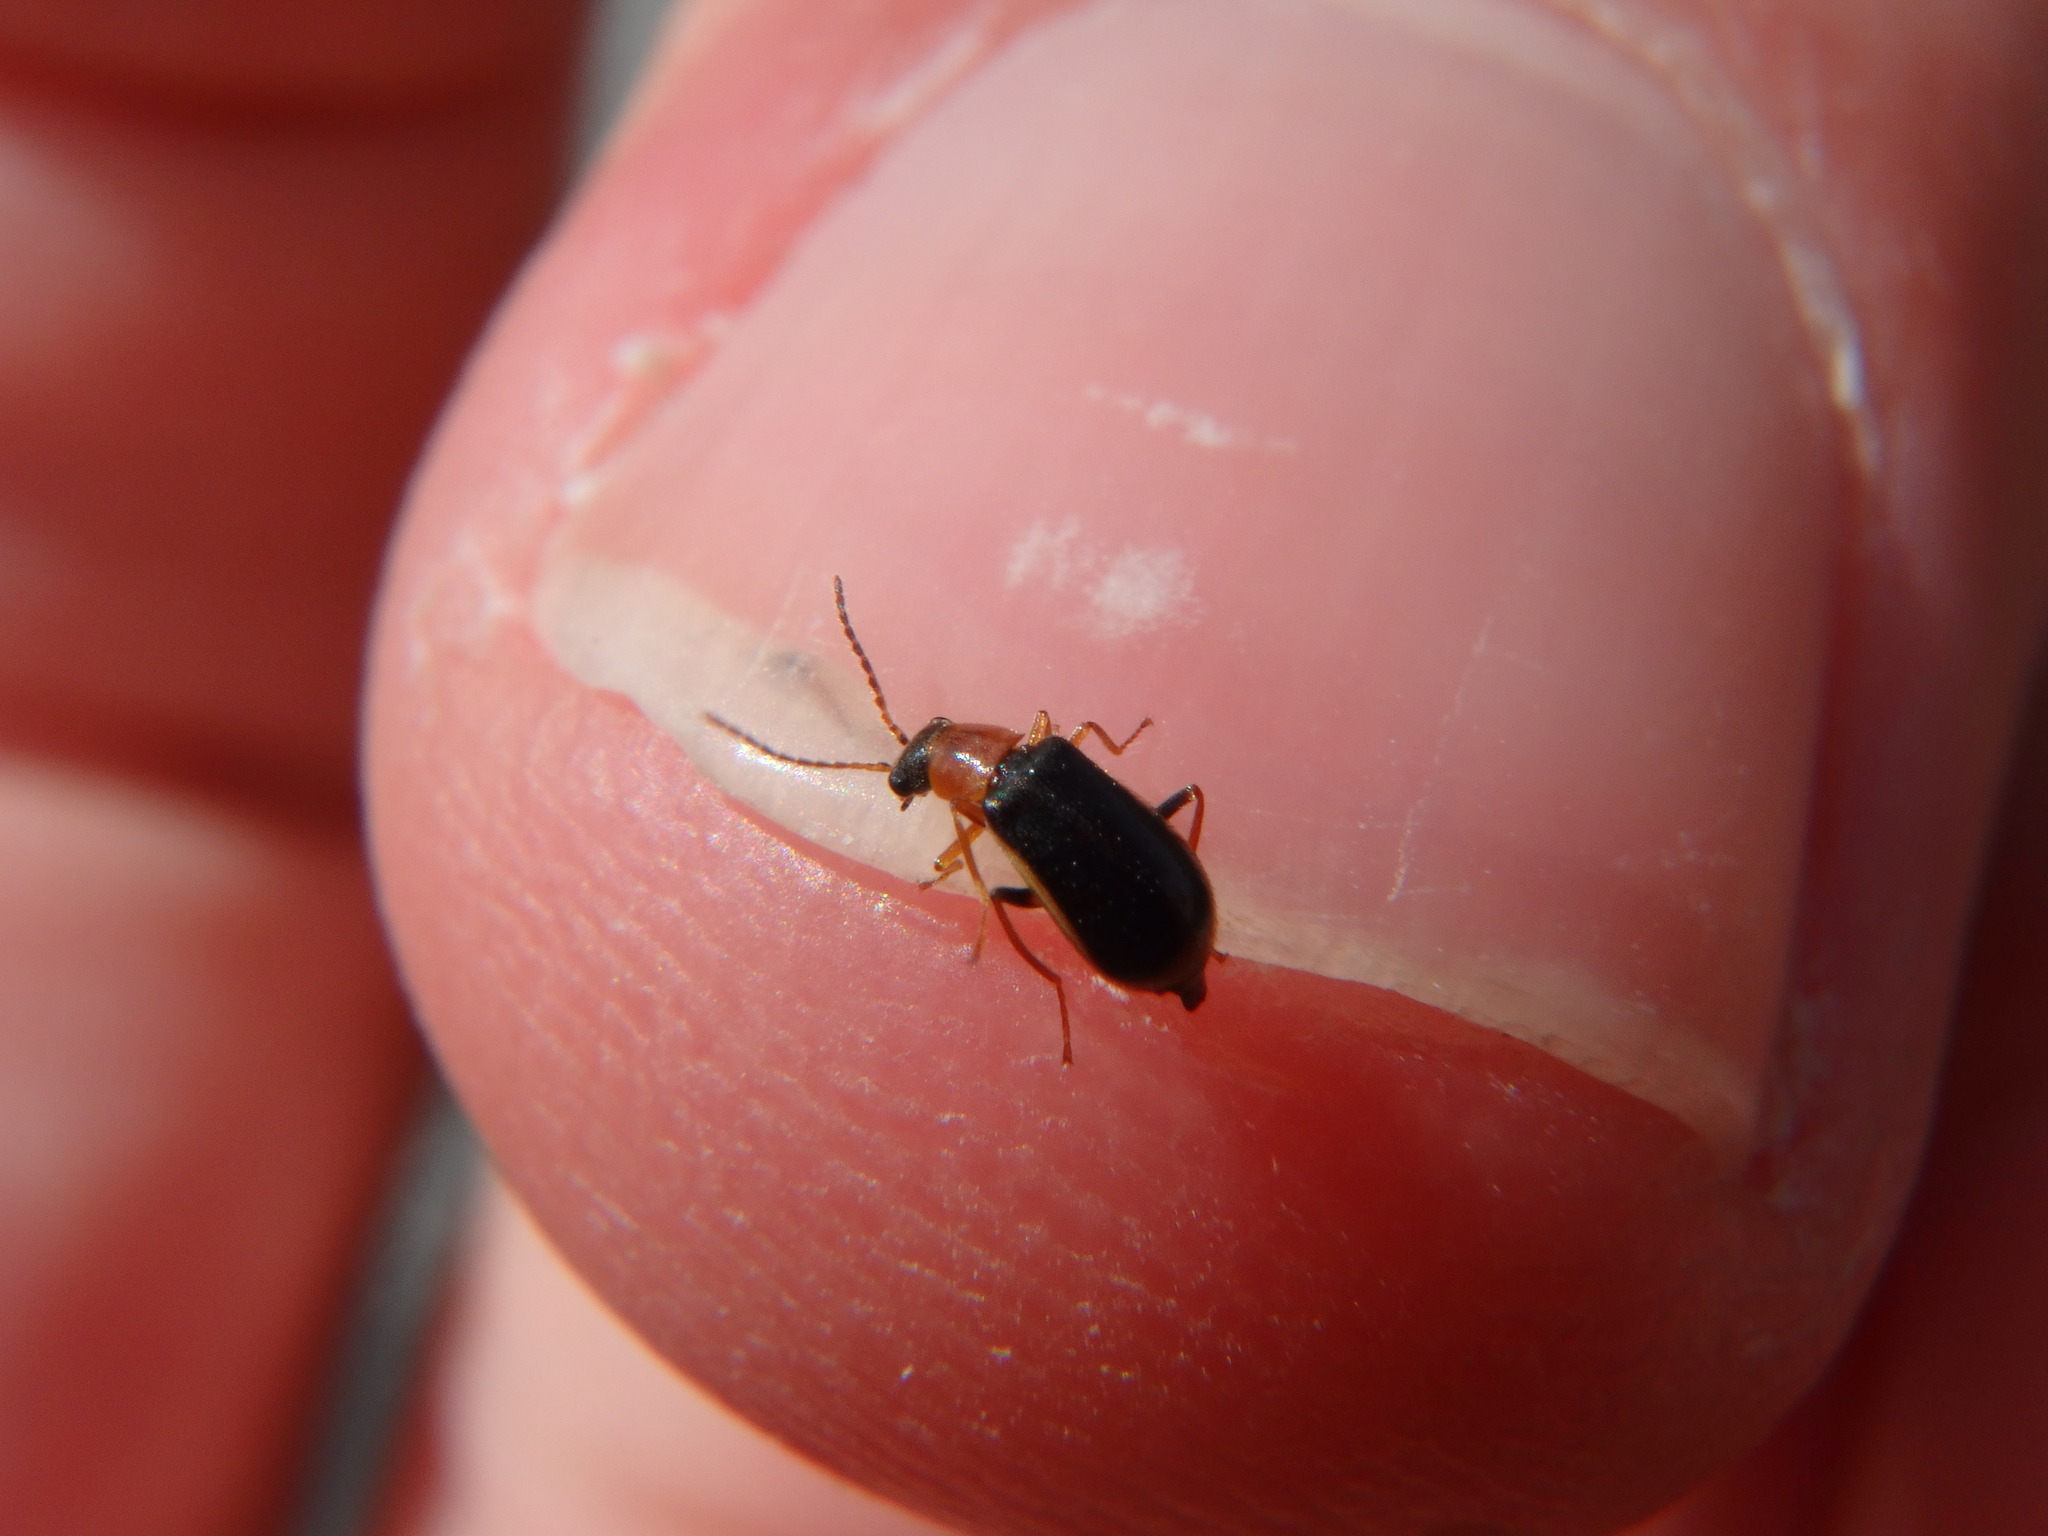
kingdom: Animalia
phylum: Arthropoda
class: Insecta
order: Coleoptera
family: Malachiidae
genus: Attalus
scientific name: Attalus analis
